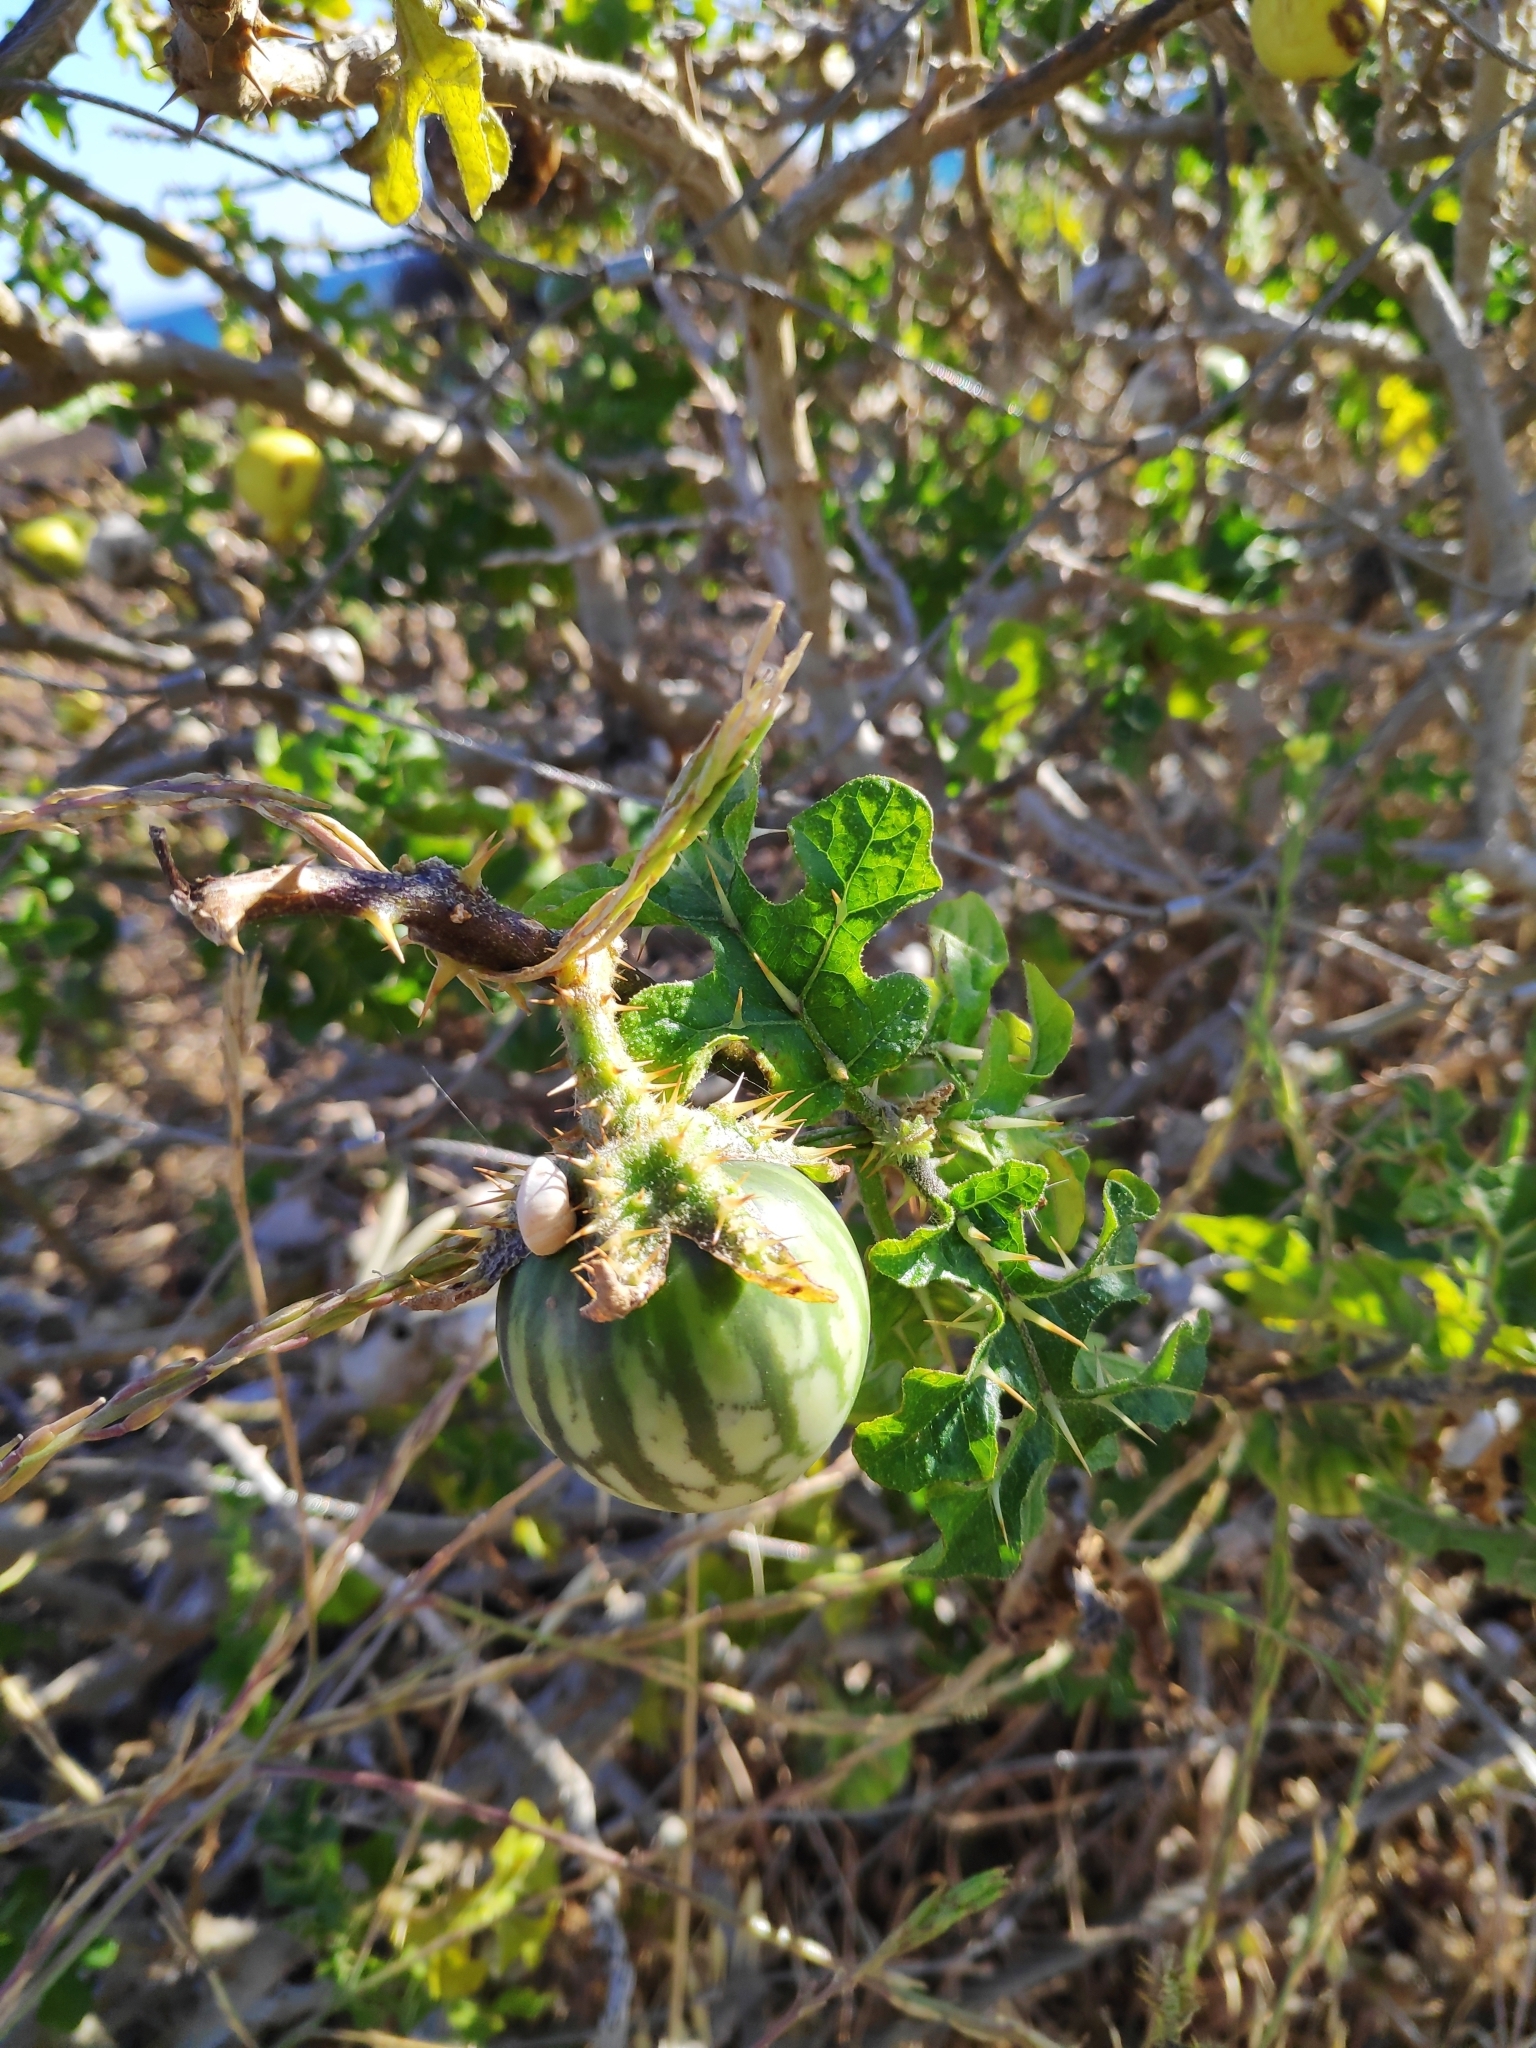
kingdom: Plantae
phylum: Tracheophyta
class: Magnoliopsida
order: Solanales
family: Solanaceae
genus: Solanum
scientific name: Solanum linnaeanum
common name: Nightshade
